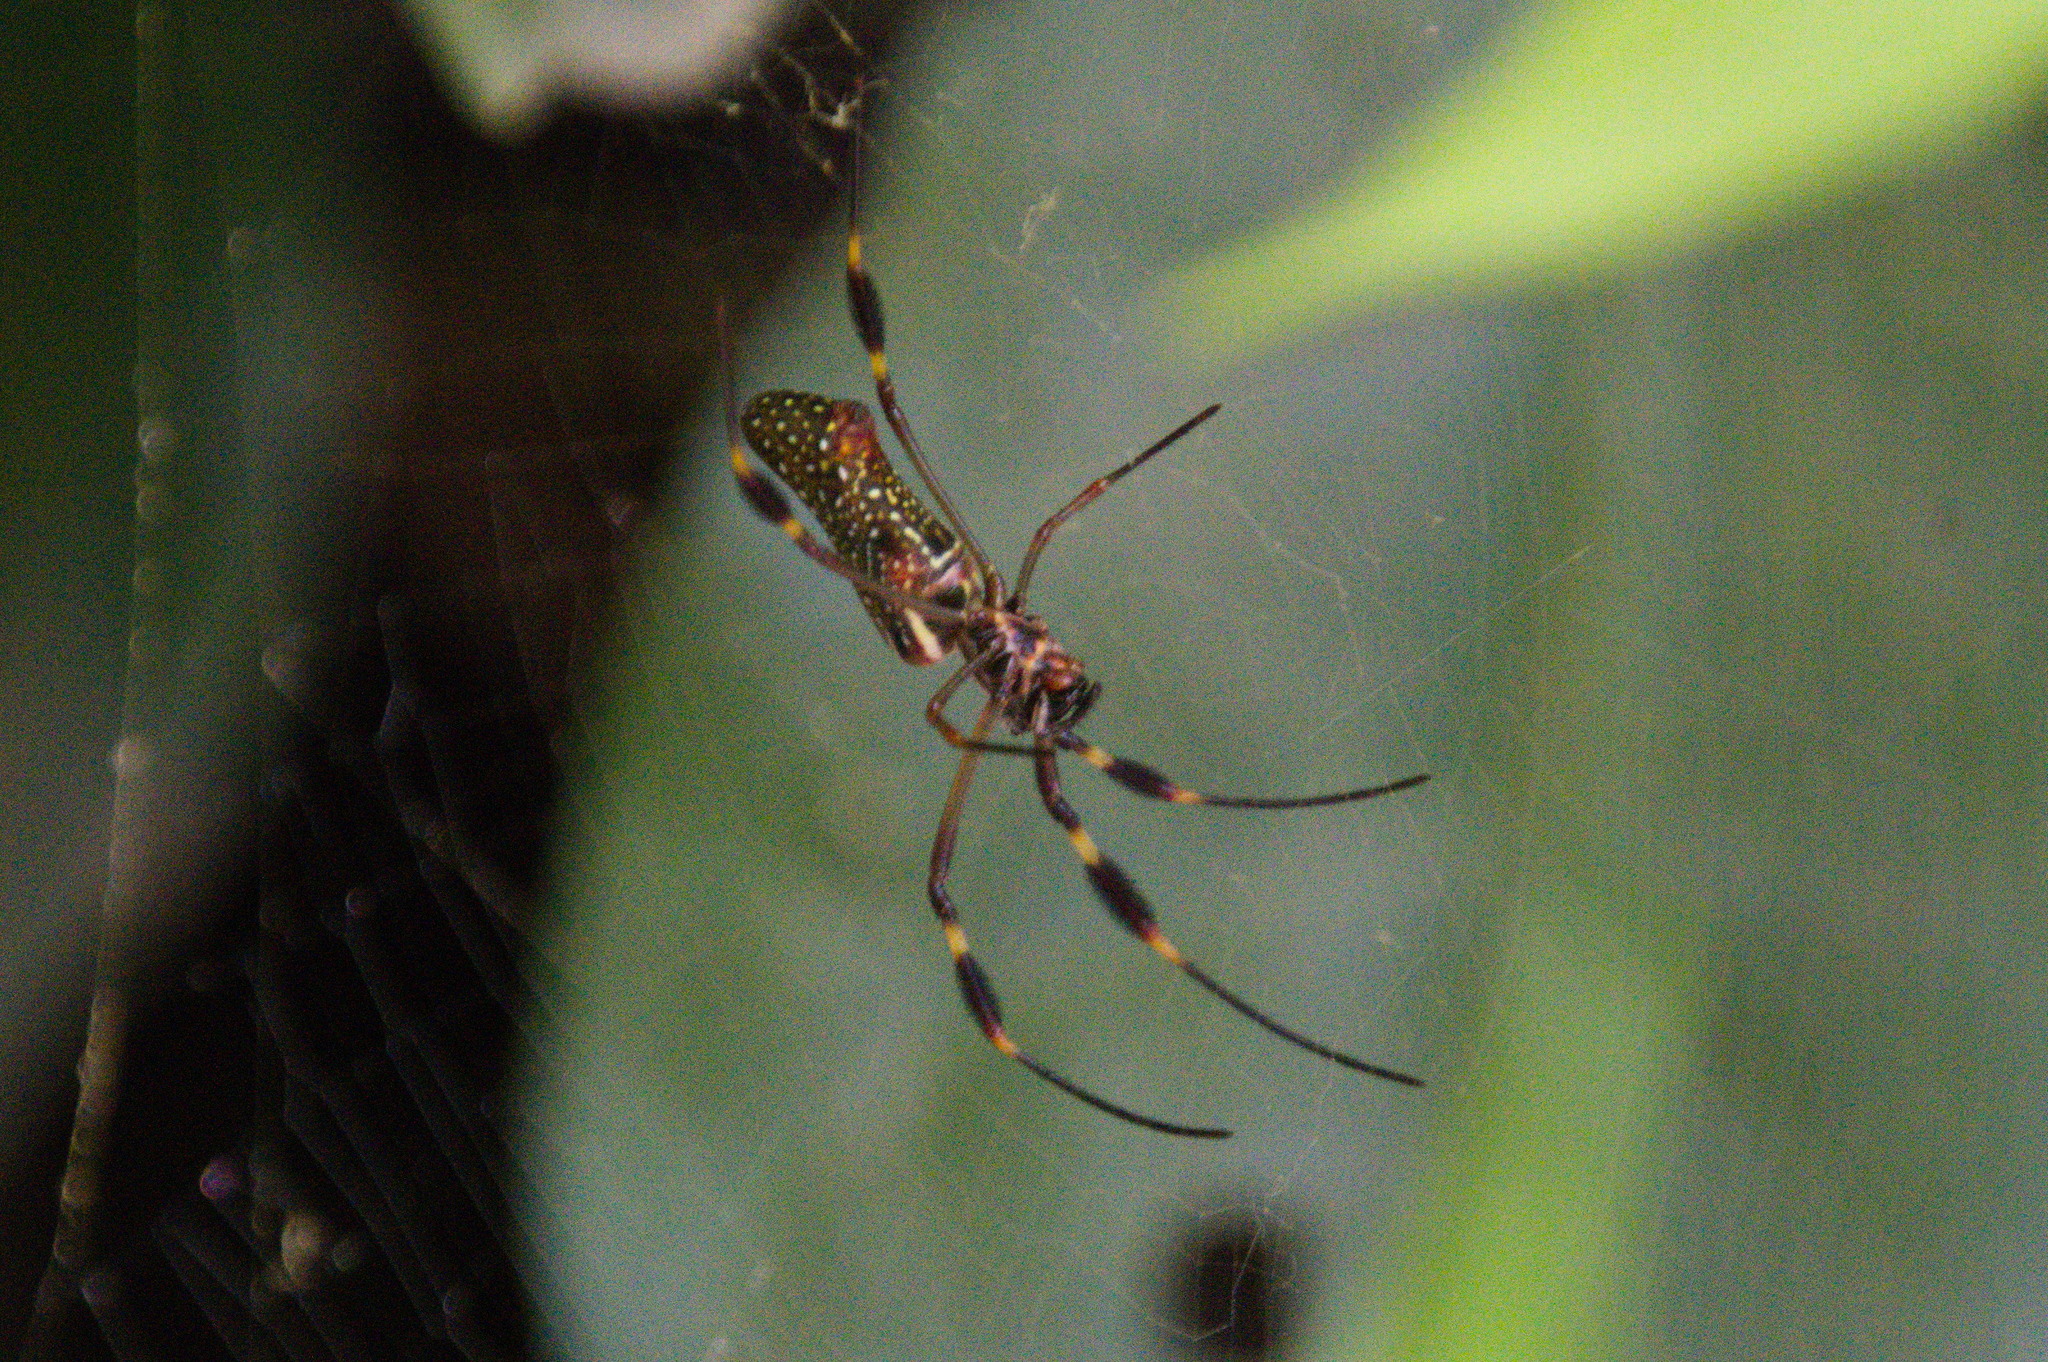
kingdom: Animalia
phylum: Arthropoda
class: Arachnida
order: Araneae
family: Araneidae
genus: Trichonephila
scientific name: Trichonephila clavipes
